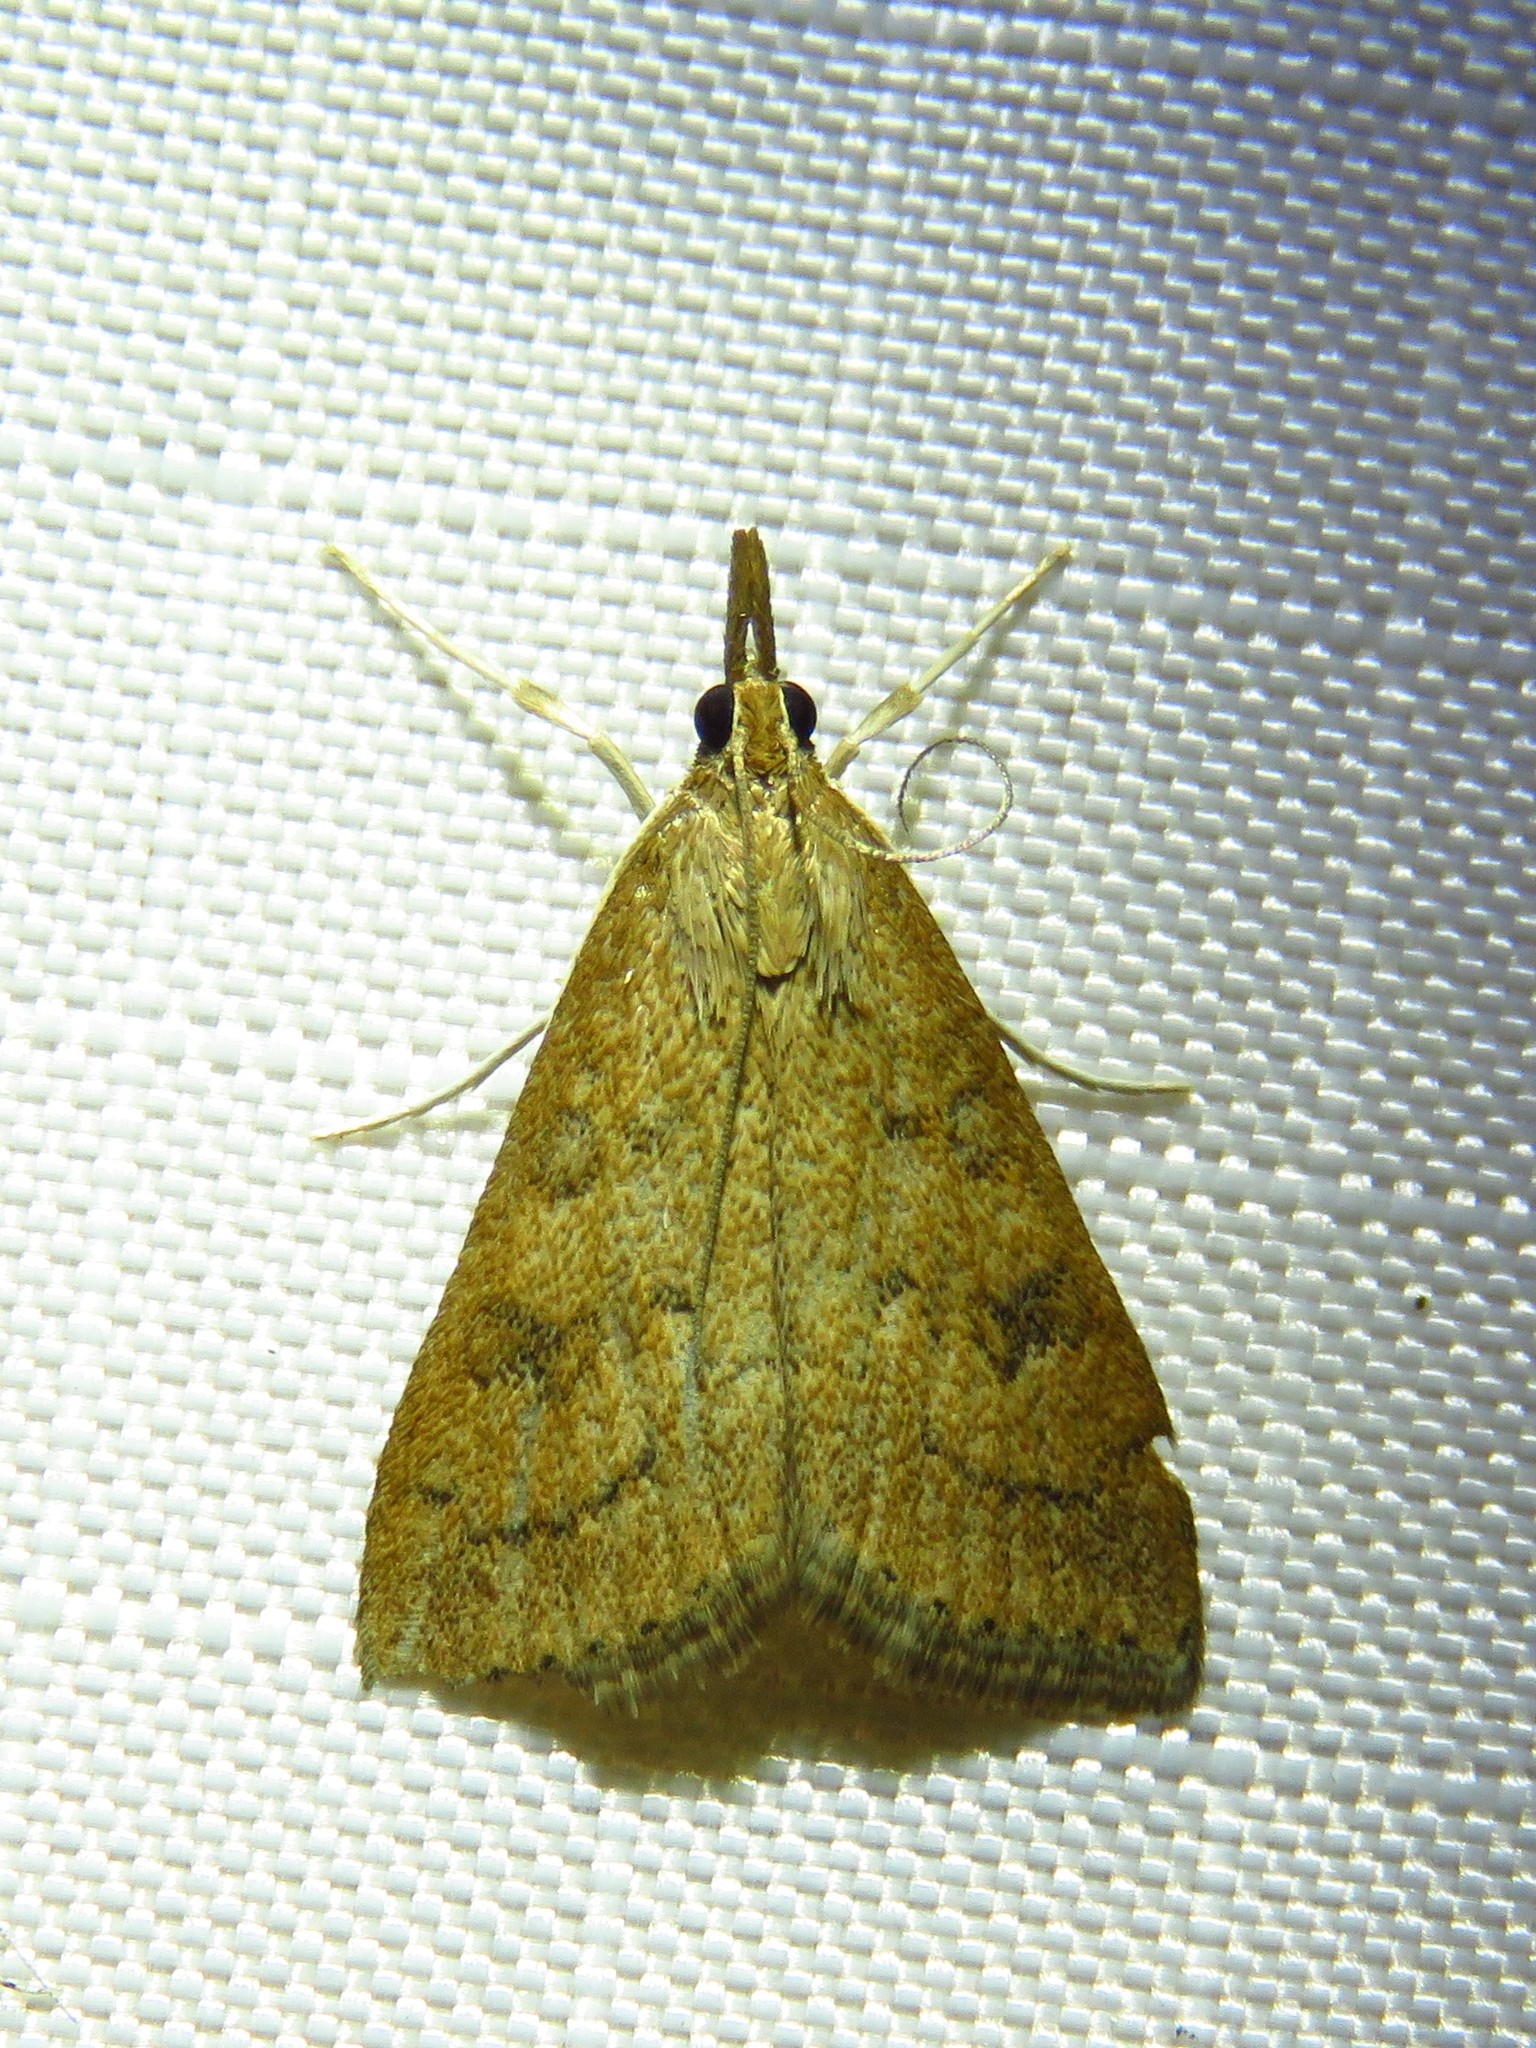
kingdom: Animalia
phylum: Arthropoda
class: Insecta
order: Lepidoptera
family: Crambidae
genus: Udea
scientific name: Udea rubigalis
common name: Celery leaftier moth
